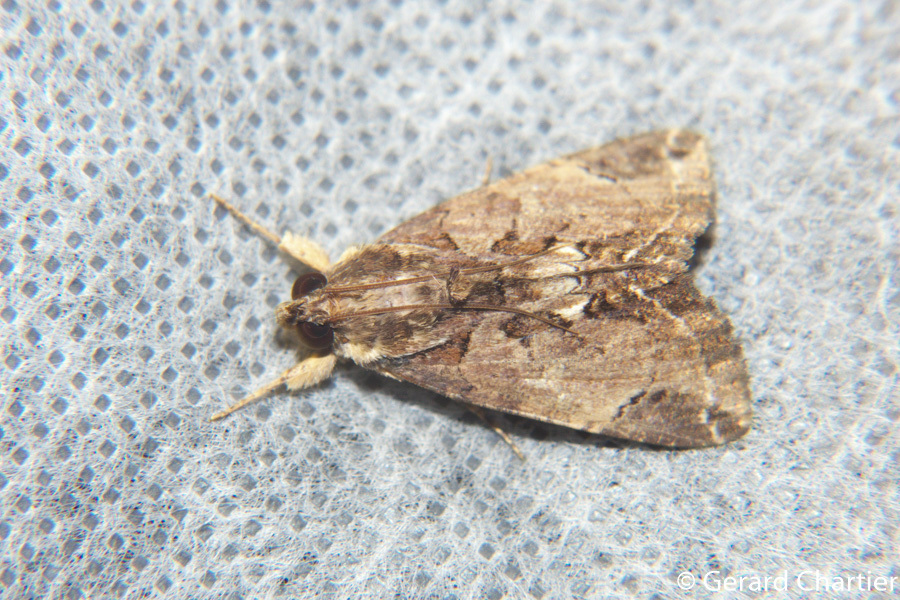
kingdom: Animalia
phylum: Arthropoda
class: Insecta
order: Lepidoptera
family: Erebidae
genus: Ercheia
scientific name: Ercheia cyllaria
